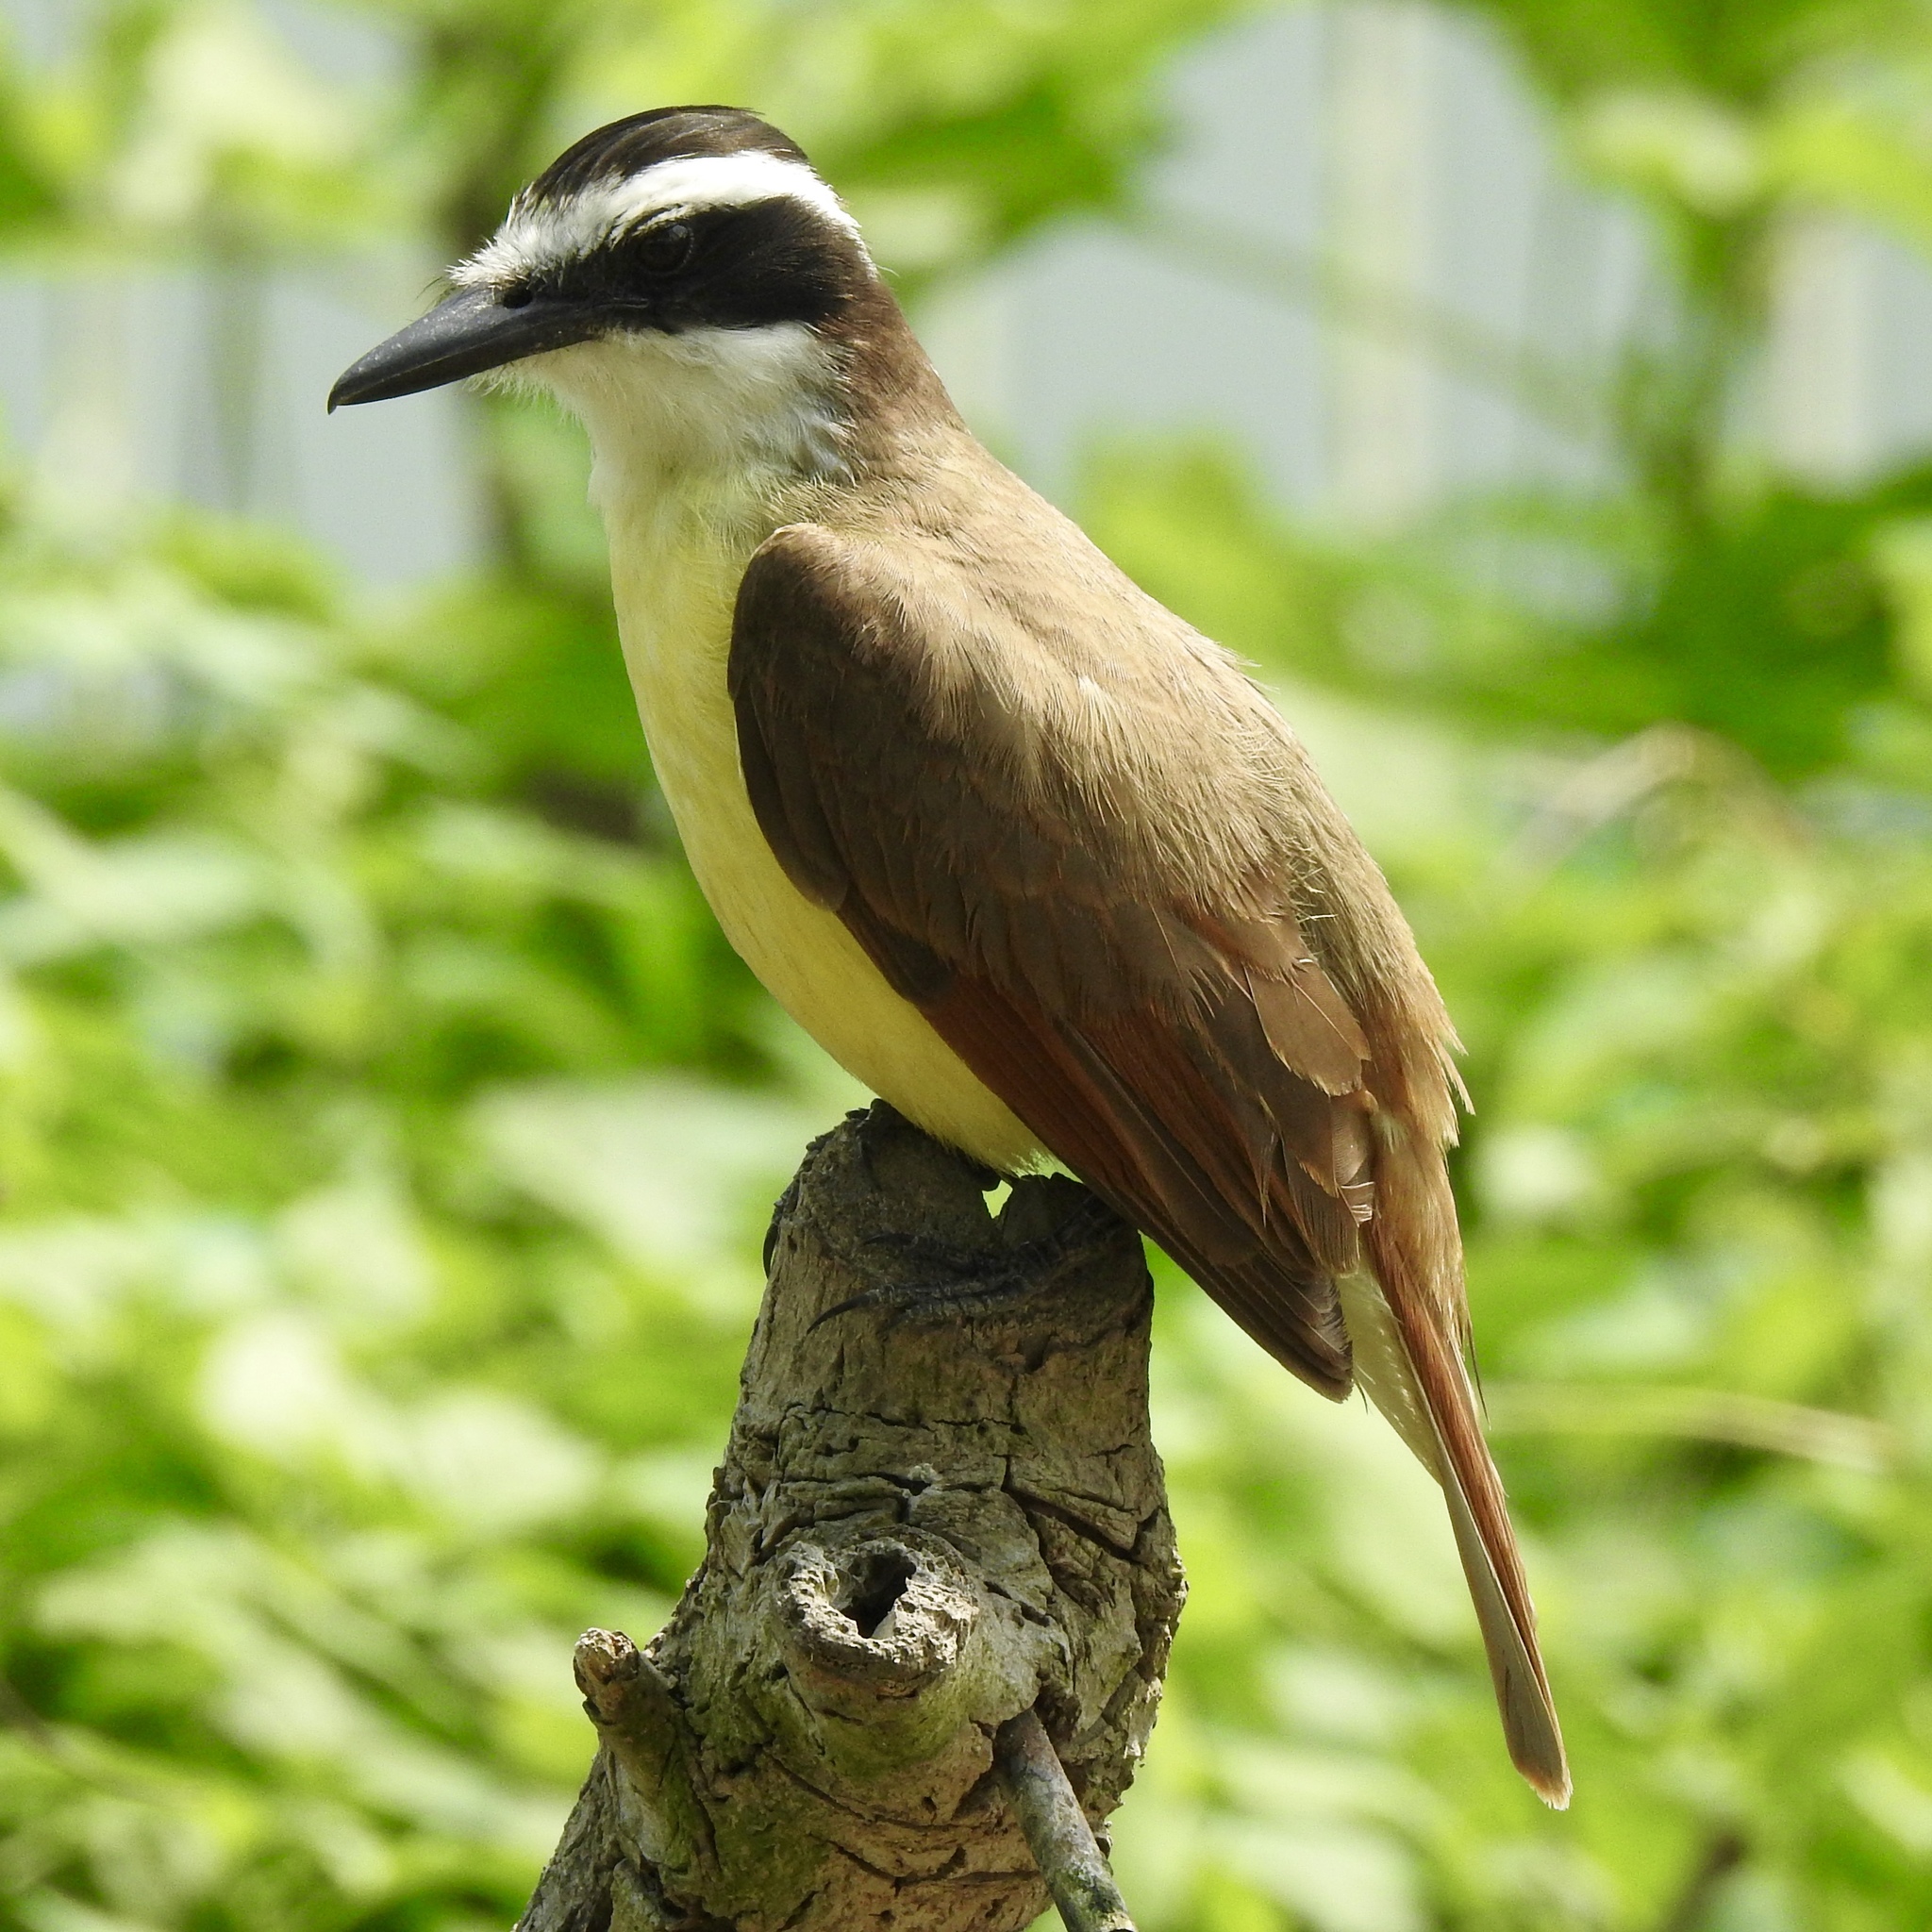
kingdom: Animalia
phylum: Chordata
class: Aves
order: Passeriformes
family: Tyrannidae
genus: Pitangus
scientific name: Pitangus sulphuratus
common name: Great kiskadee
